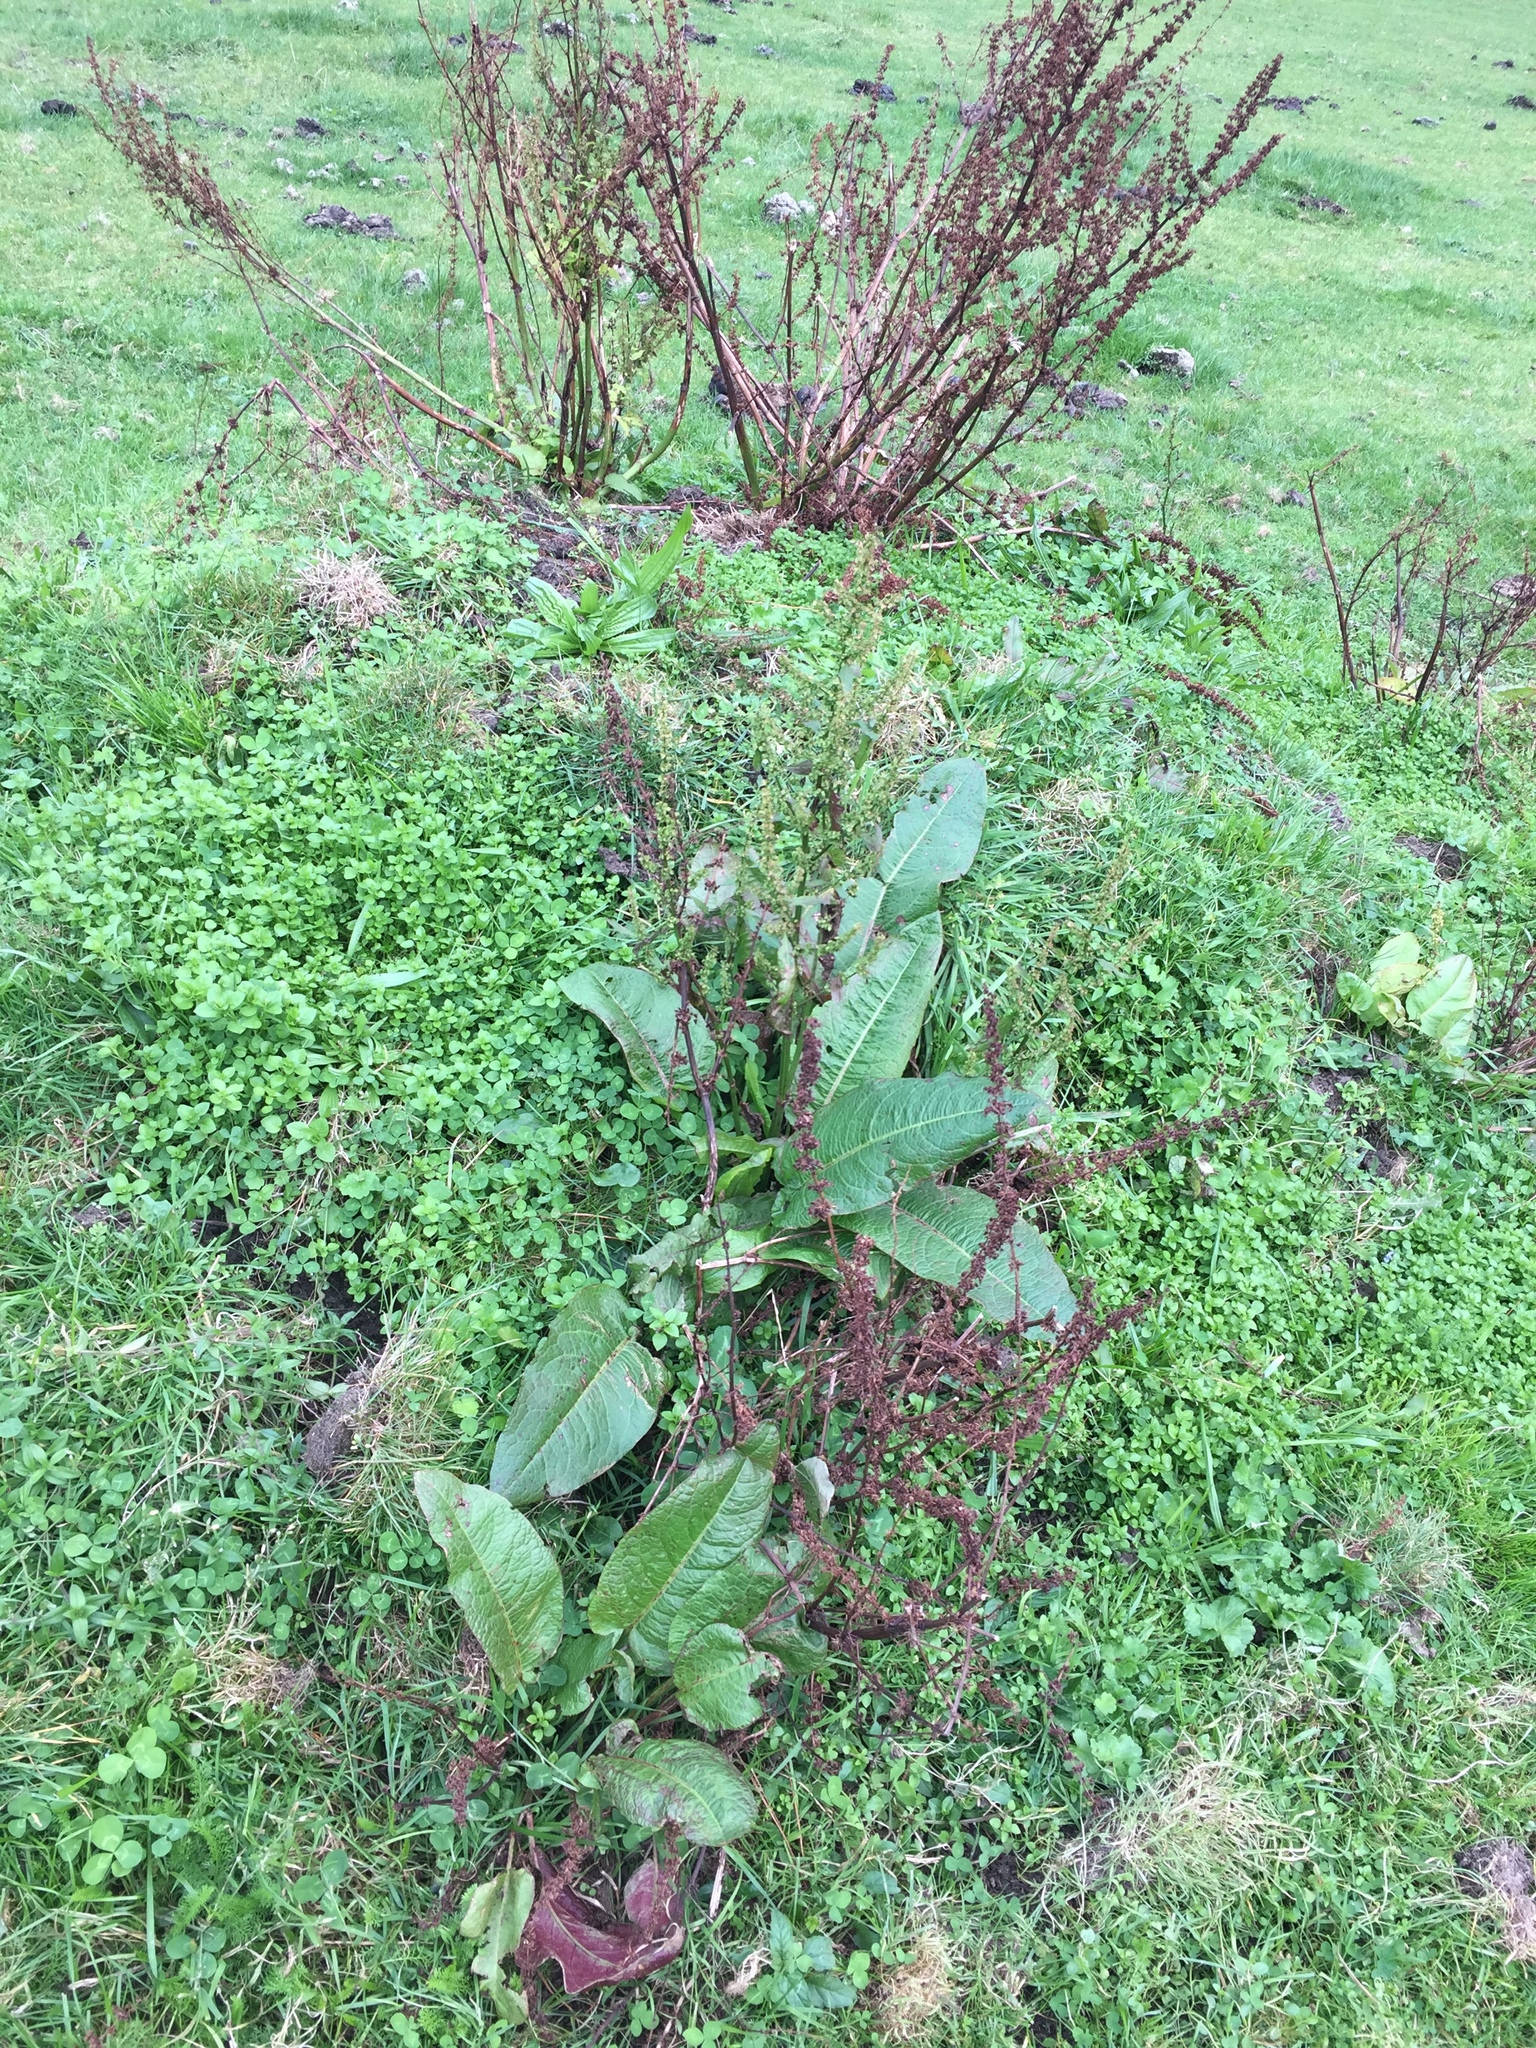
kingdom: Plantae
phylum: Tracheophyta
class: Magnoliopsida
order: Caryophyllales
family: Polygonaceae
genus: Rumex
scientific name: Rumex obtusifolius
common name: Bitter dock
